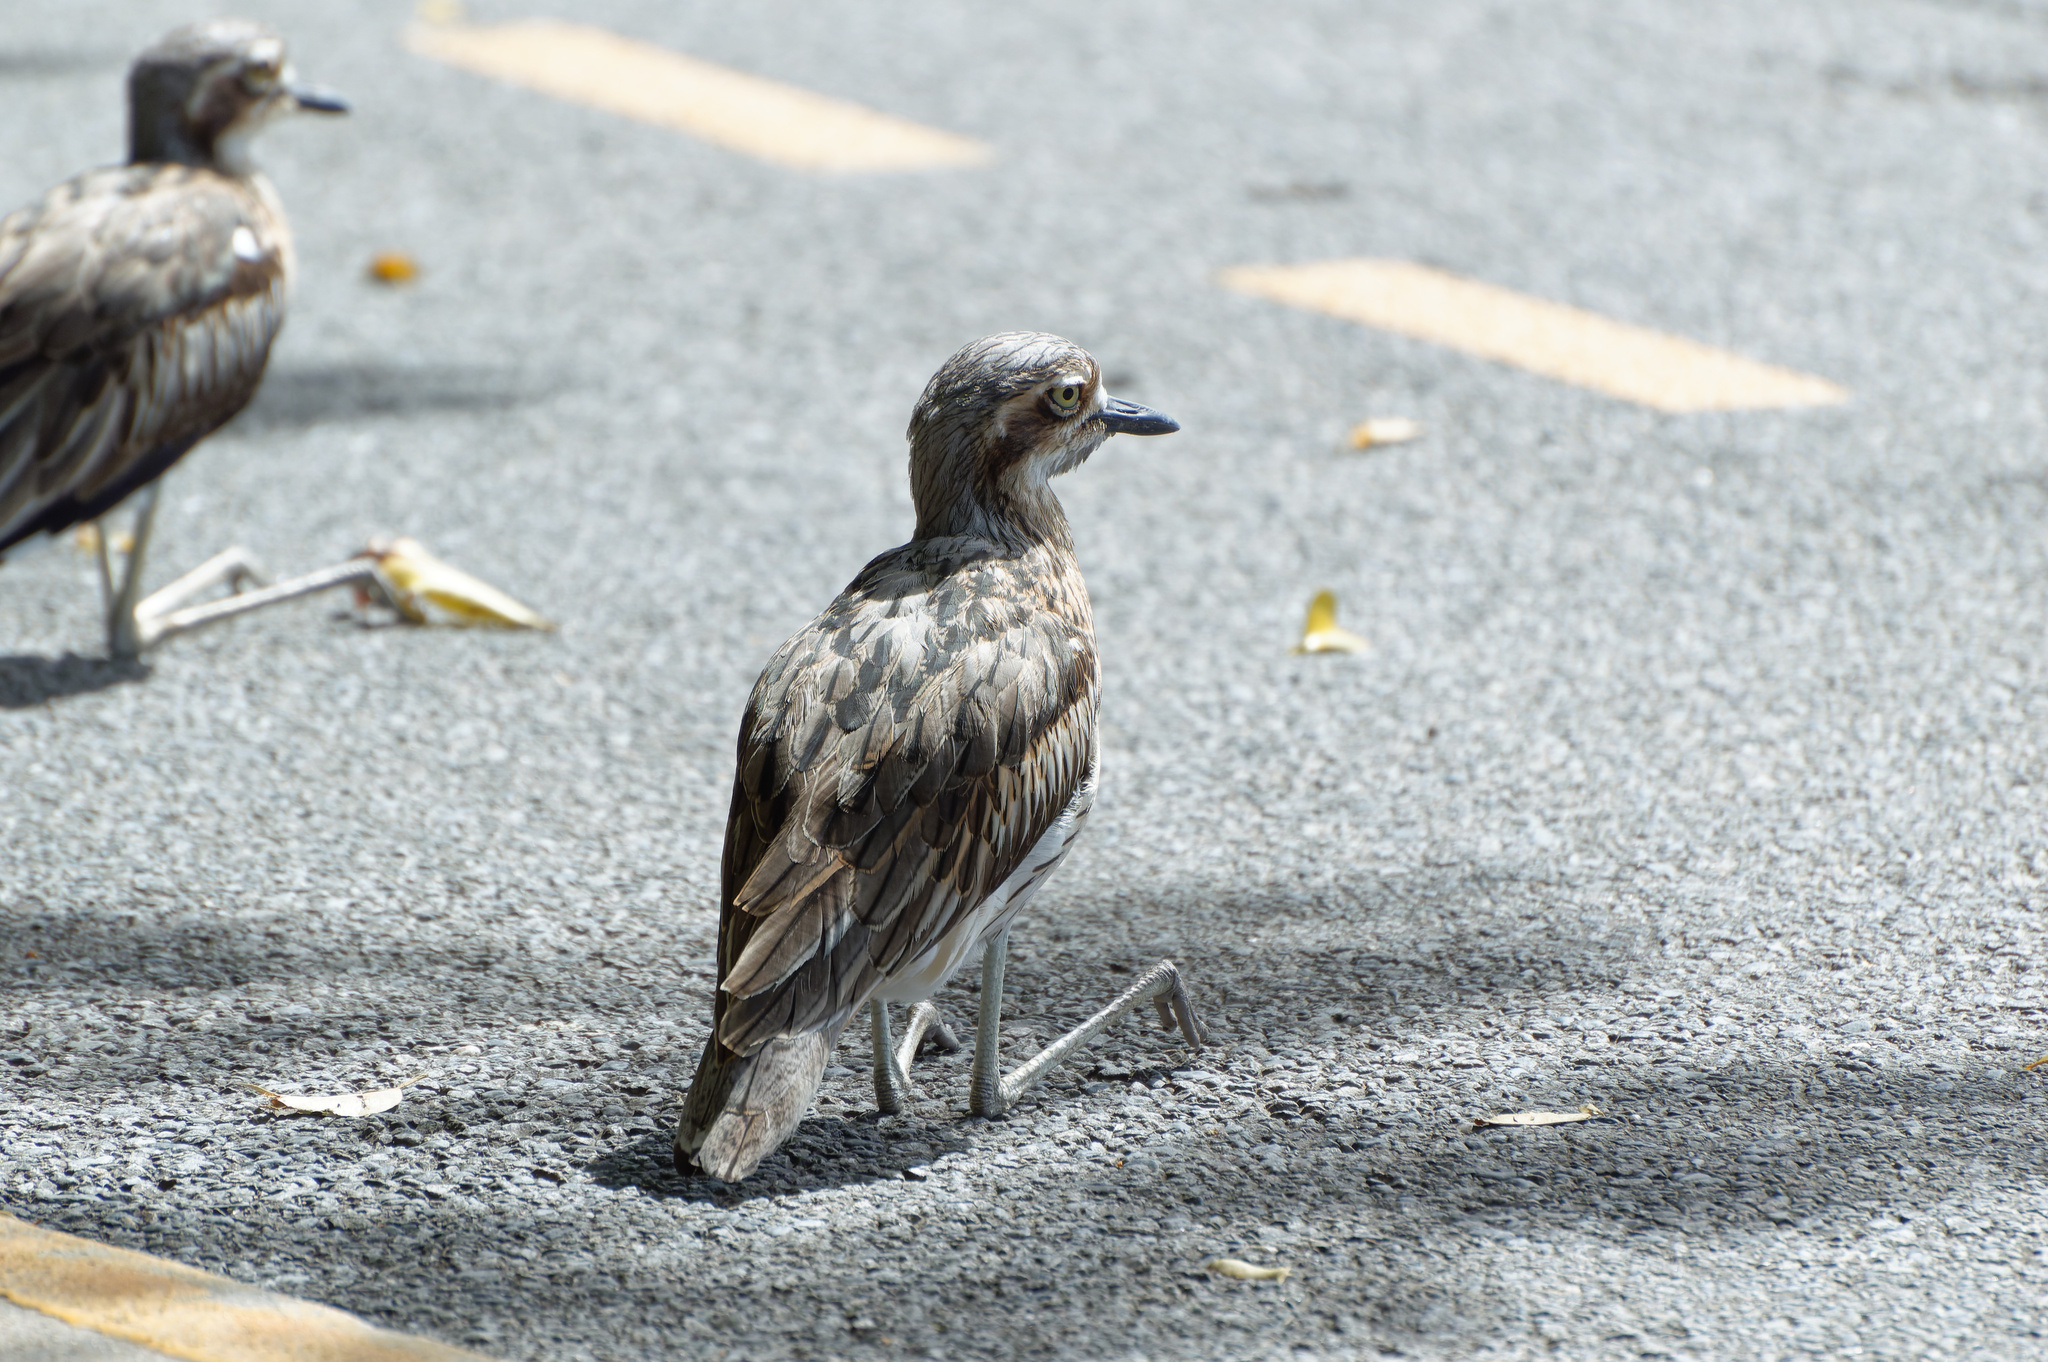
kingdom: Animalia
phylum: Chordata
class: Aves
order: Charadriiformes
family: Burhinidae
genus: Burhinus
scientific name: Burhinus grallarius
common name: Bush stone-curlew
